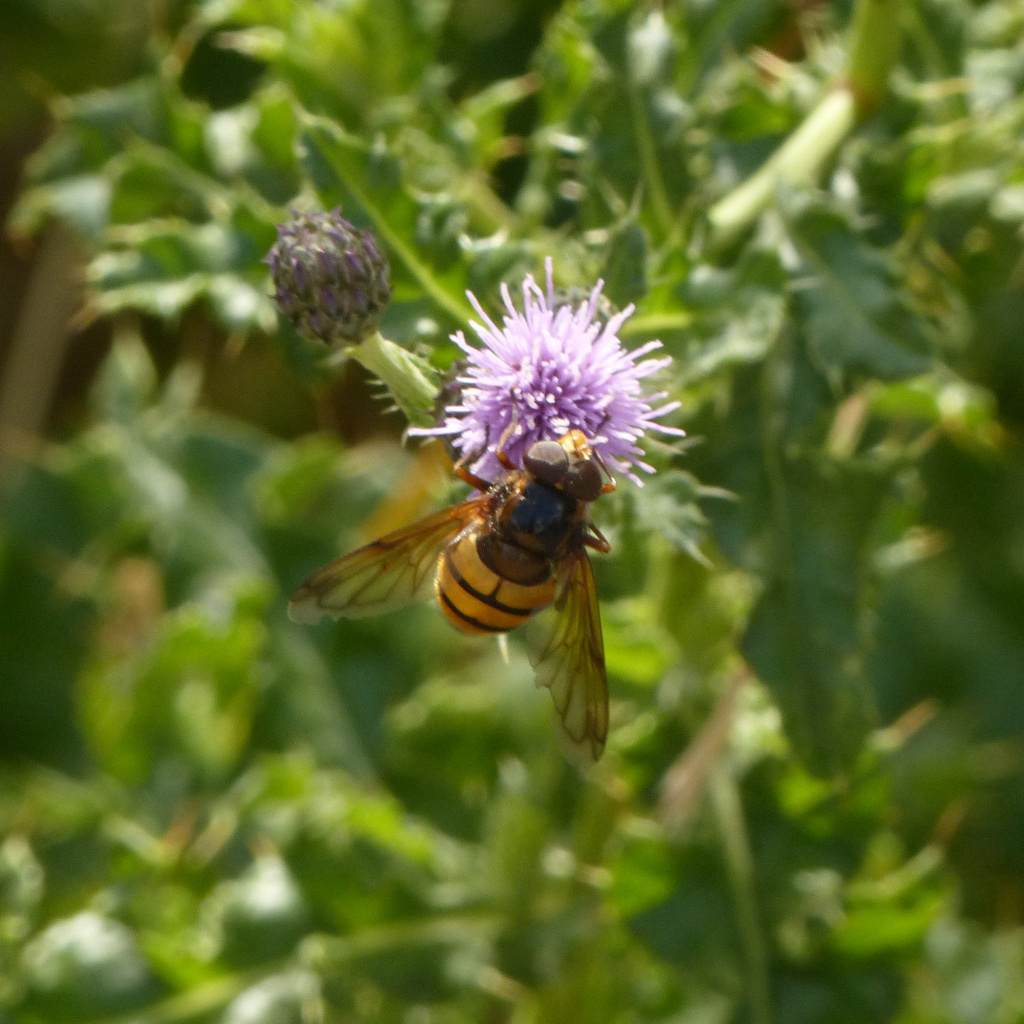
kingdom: Animalia
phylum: Arthropoda
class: Insecta
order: Diptera
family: Syrphidae
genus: Volucella
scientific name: Volucella inanis
